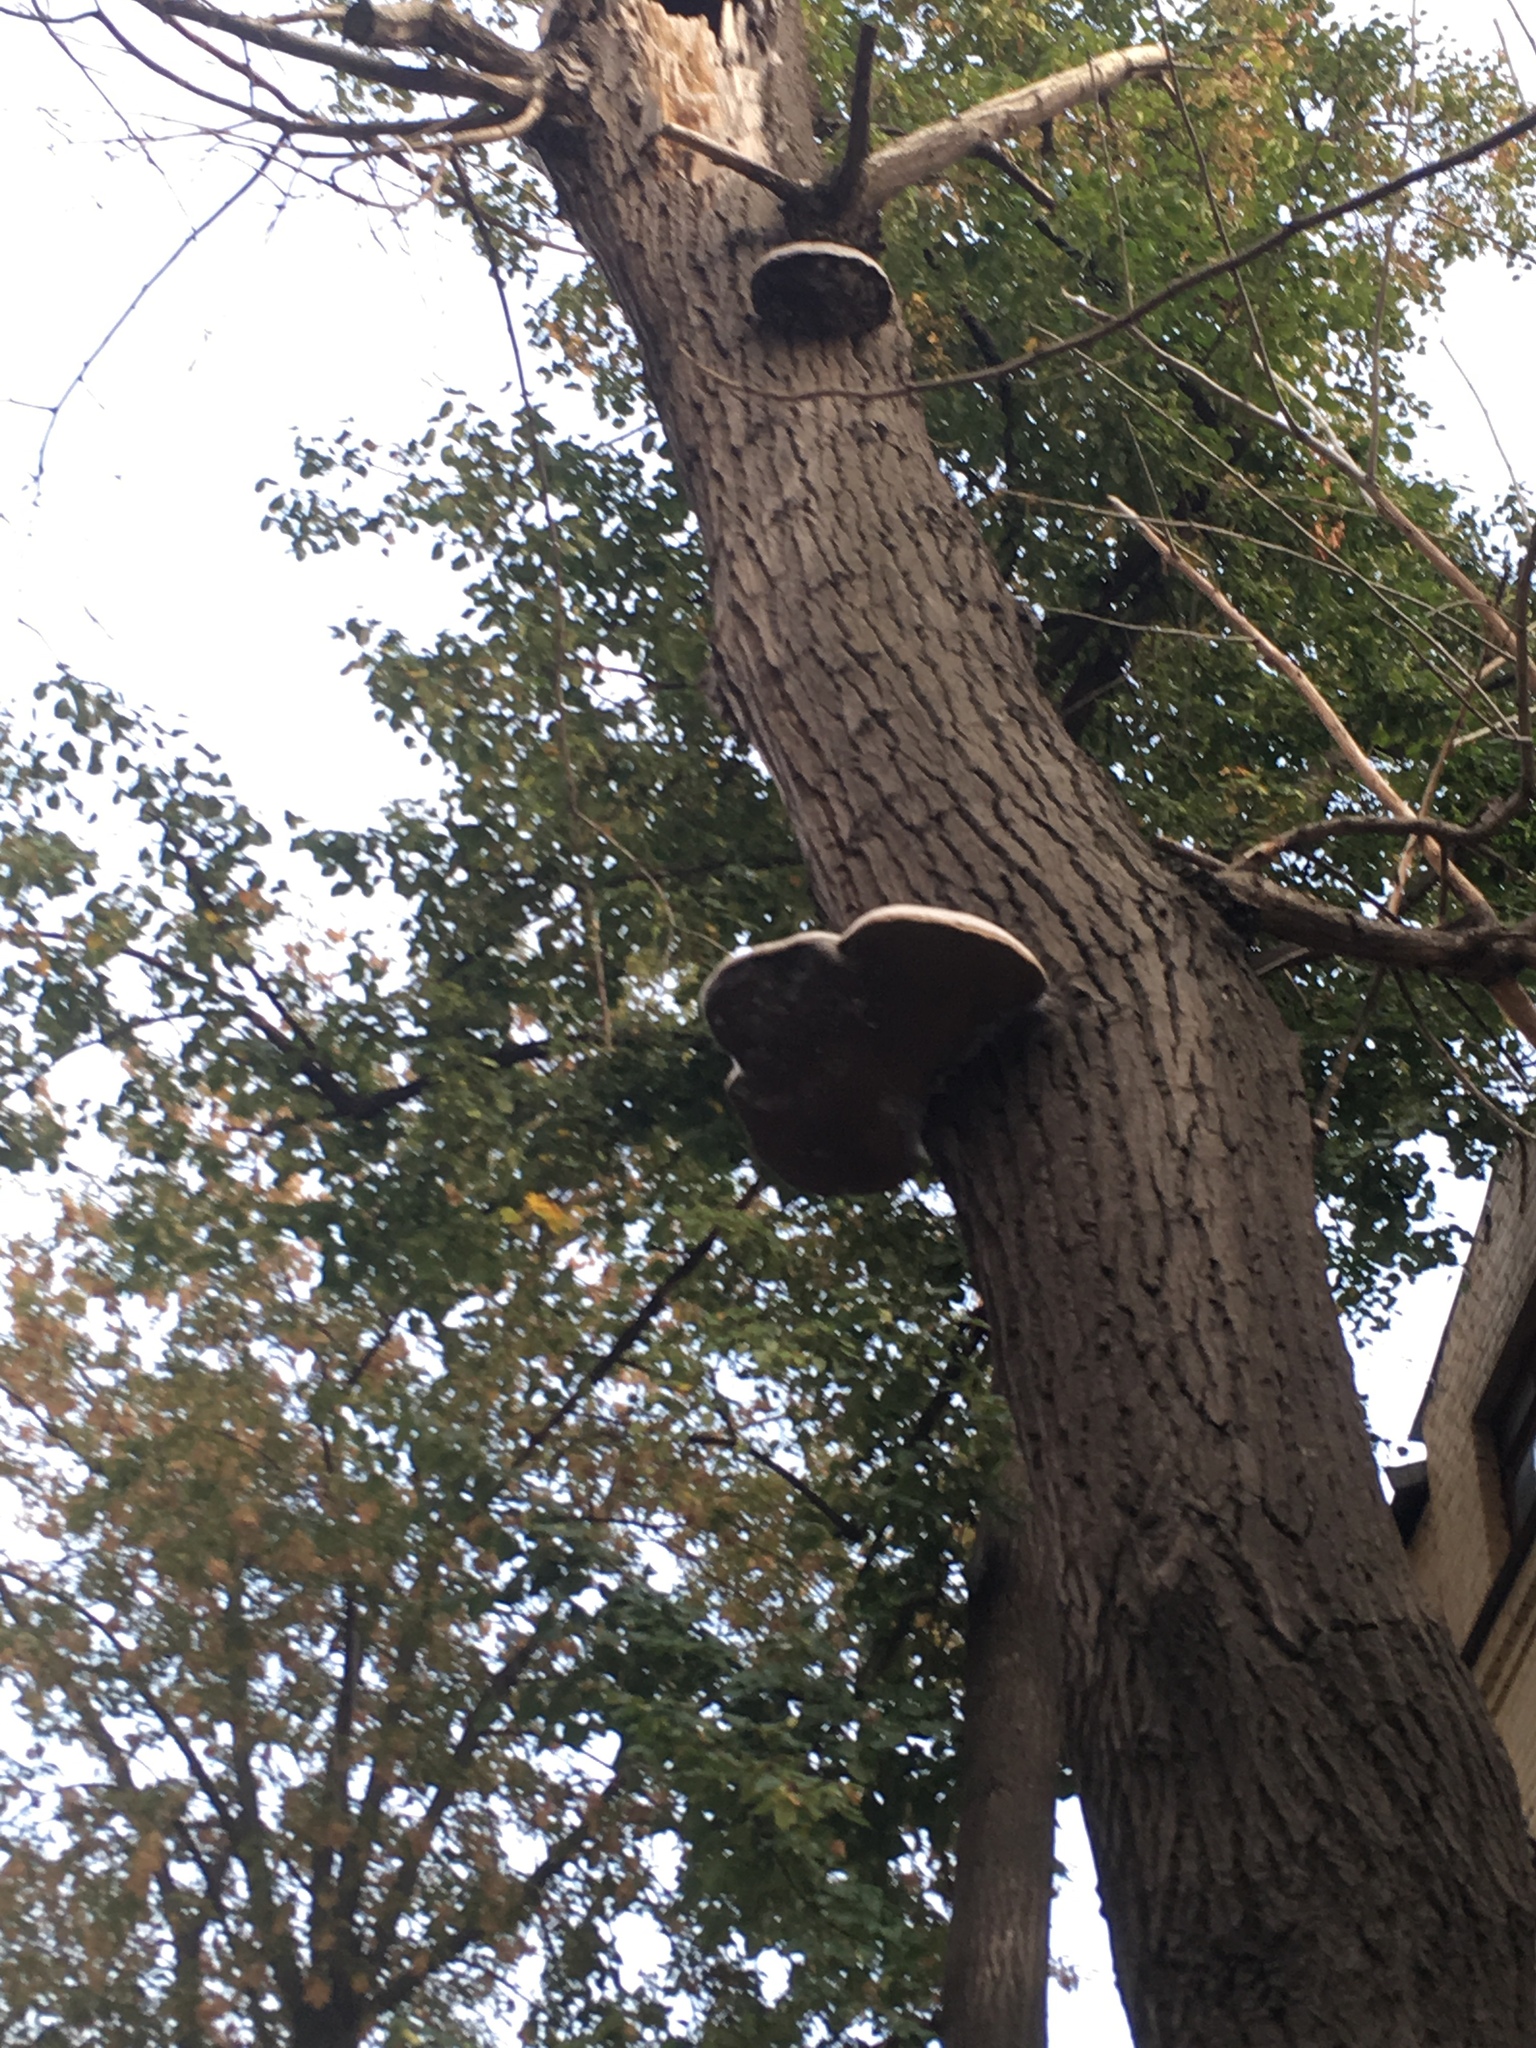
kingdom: Fungi
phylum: Basidiomycota
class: Agaricomycetes
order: Polyporales
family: Polyporaceae
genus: Fomes
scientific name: Fomes fomentarius
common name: Hoof fungus
